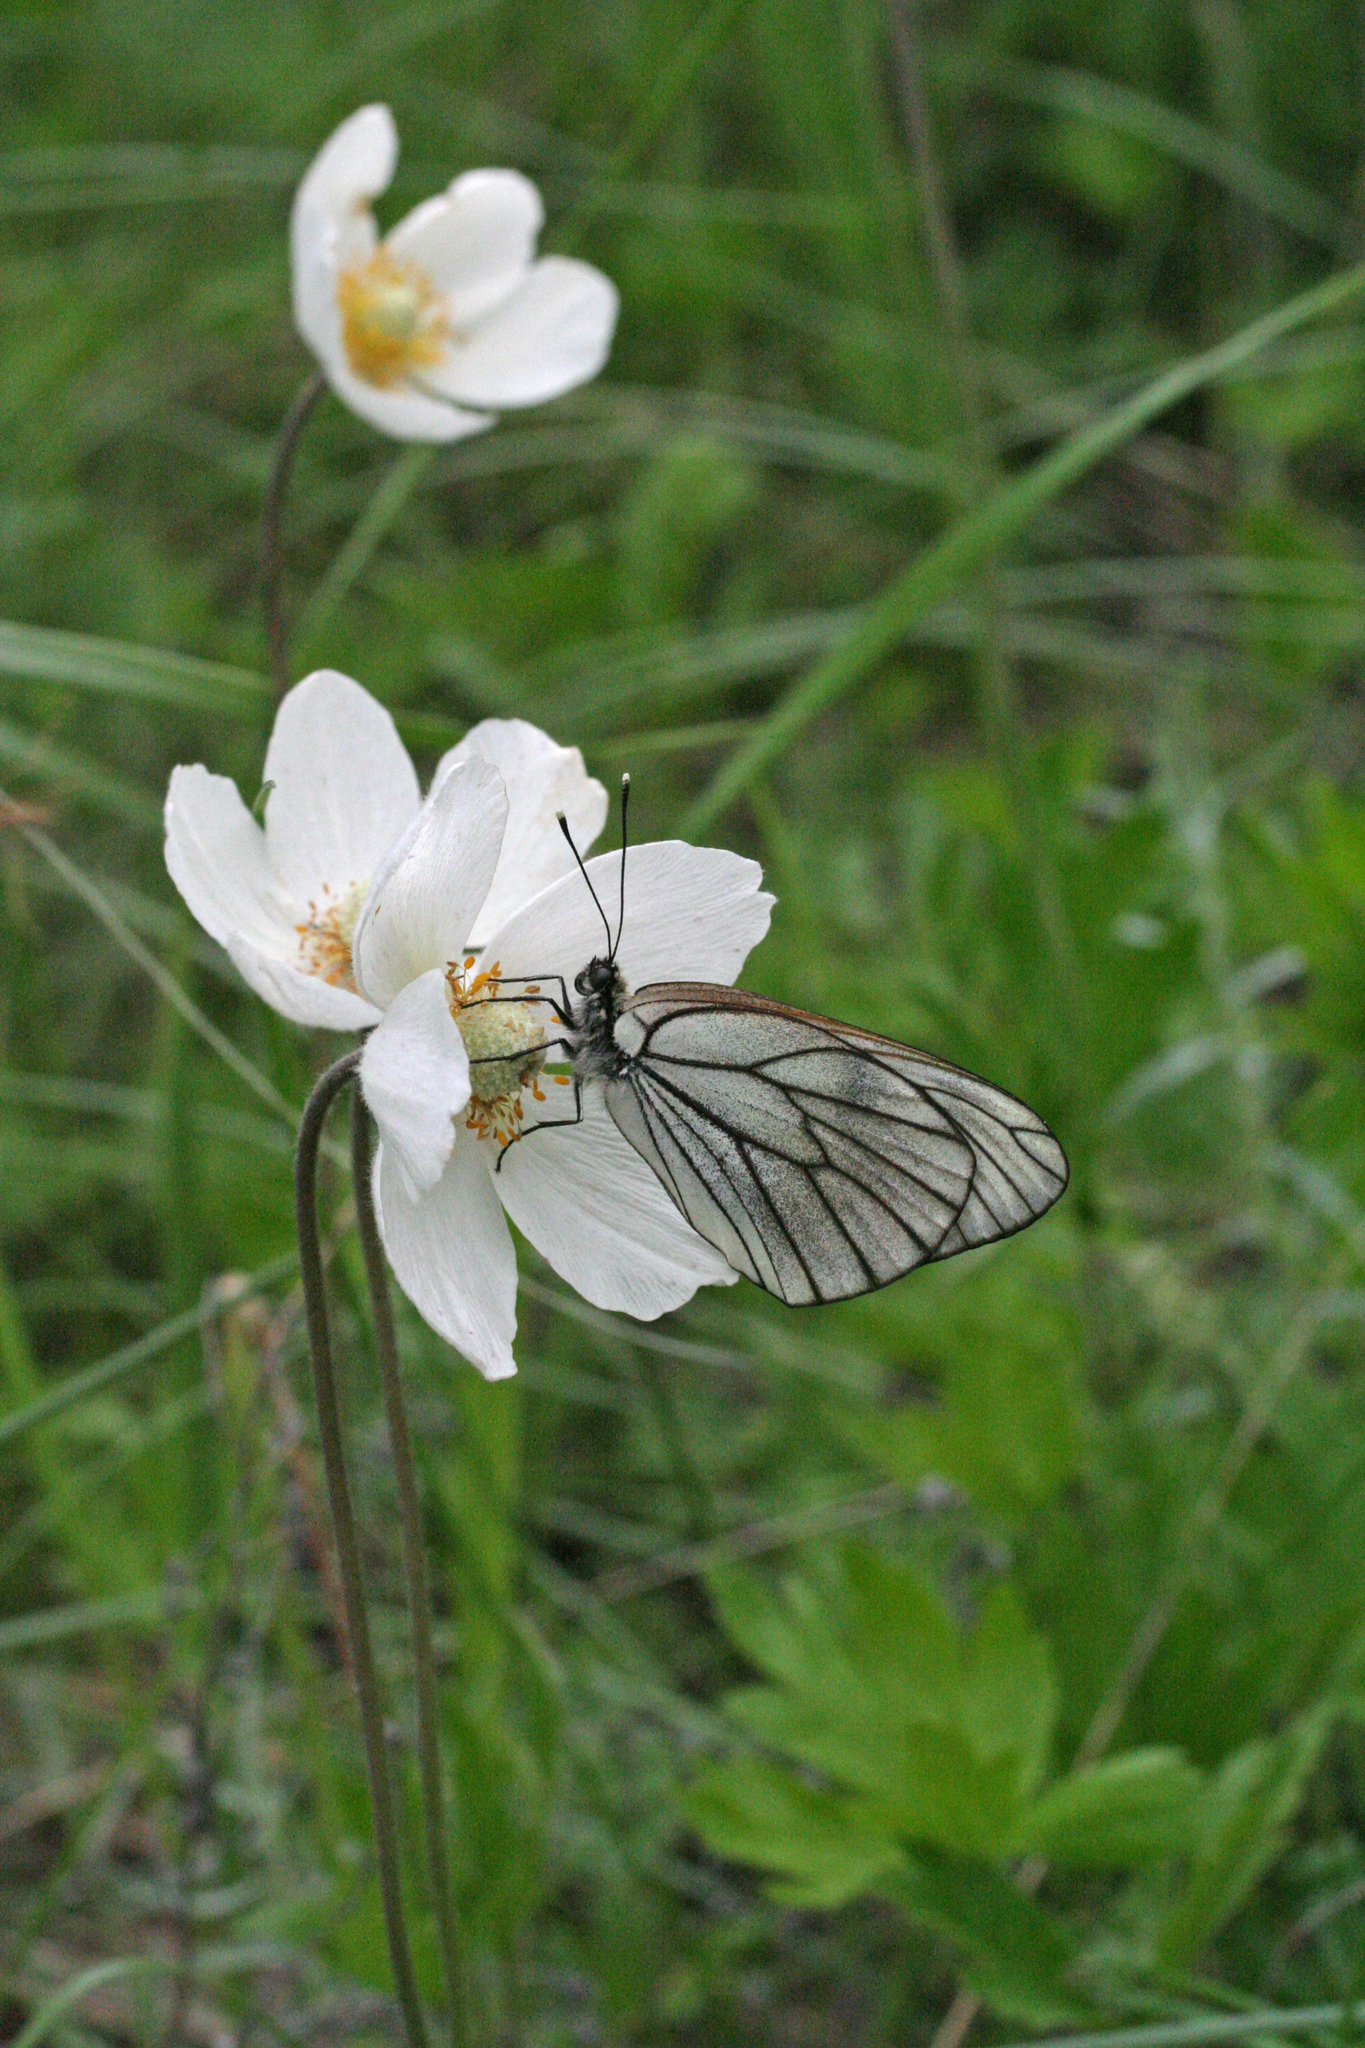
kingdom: Plantae
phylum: Tracheophyta
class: Magnoliopsida
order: Ranunculales
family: Ranunculaceae
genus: Anemone
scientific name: Anemone sylvestris
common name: Snowdrop anemone
